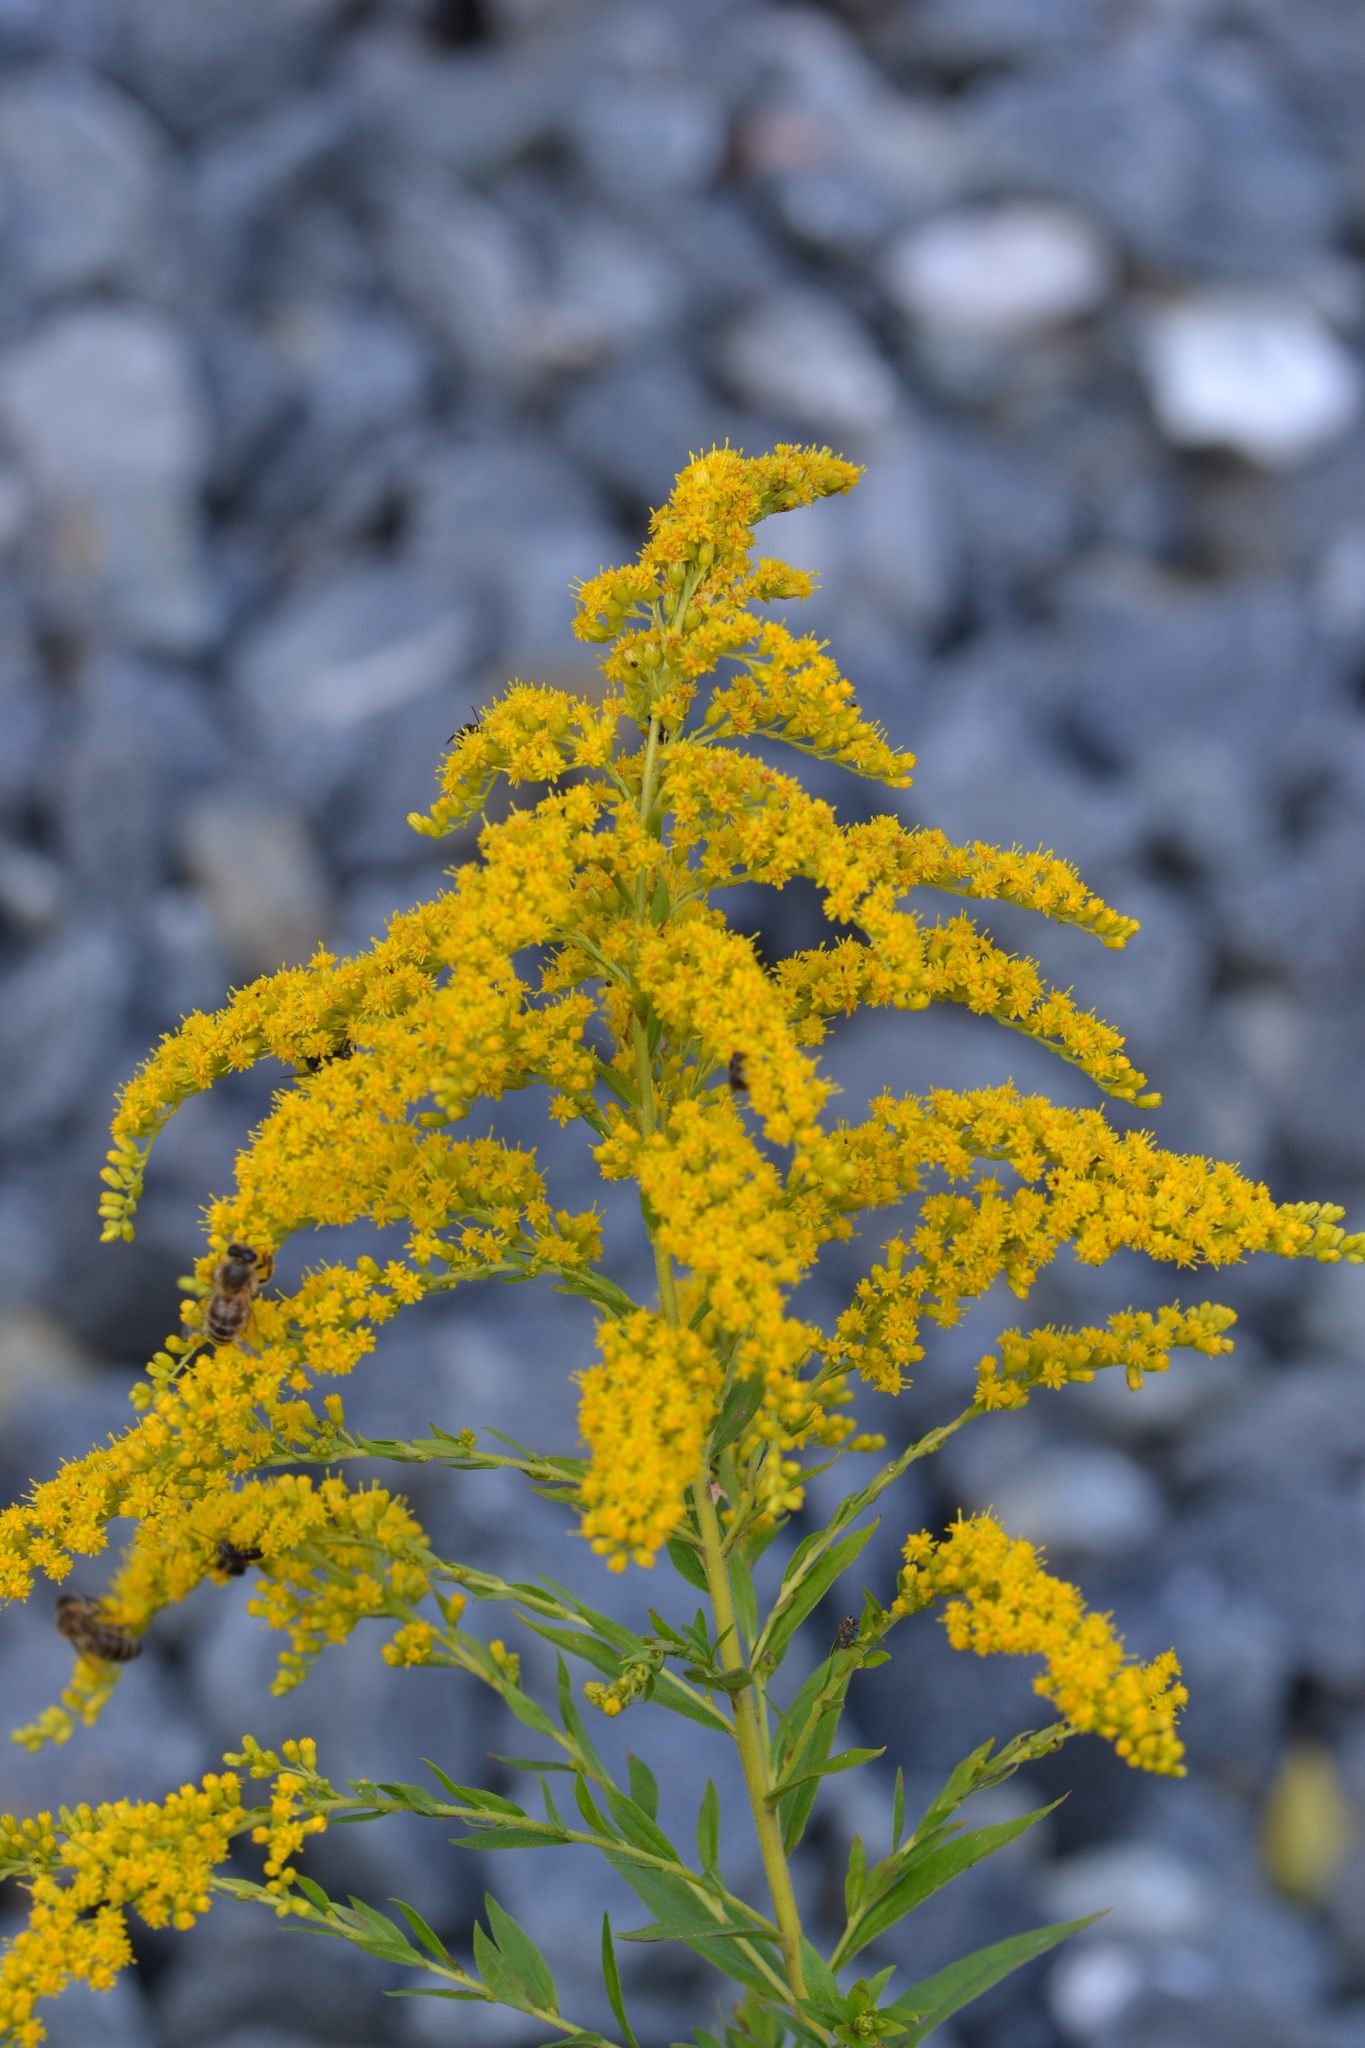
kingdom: Plantae
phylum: Tracheophyta
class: Magnoliopsida
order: Asterales
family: Asteraceae
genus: Solidago
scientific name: Solidago canadensis
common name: Canada goldenrod
